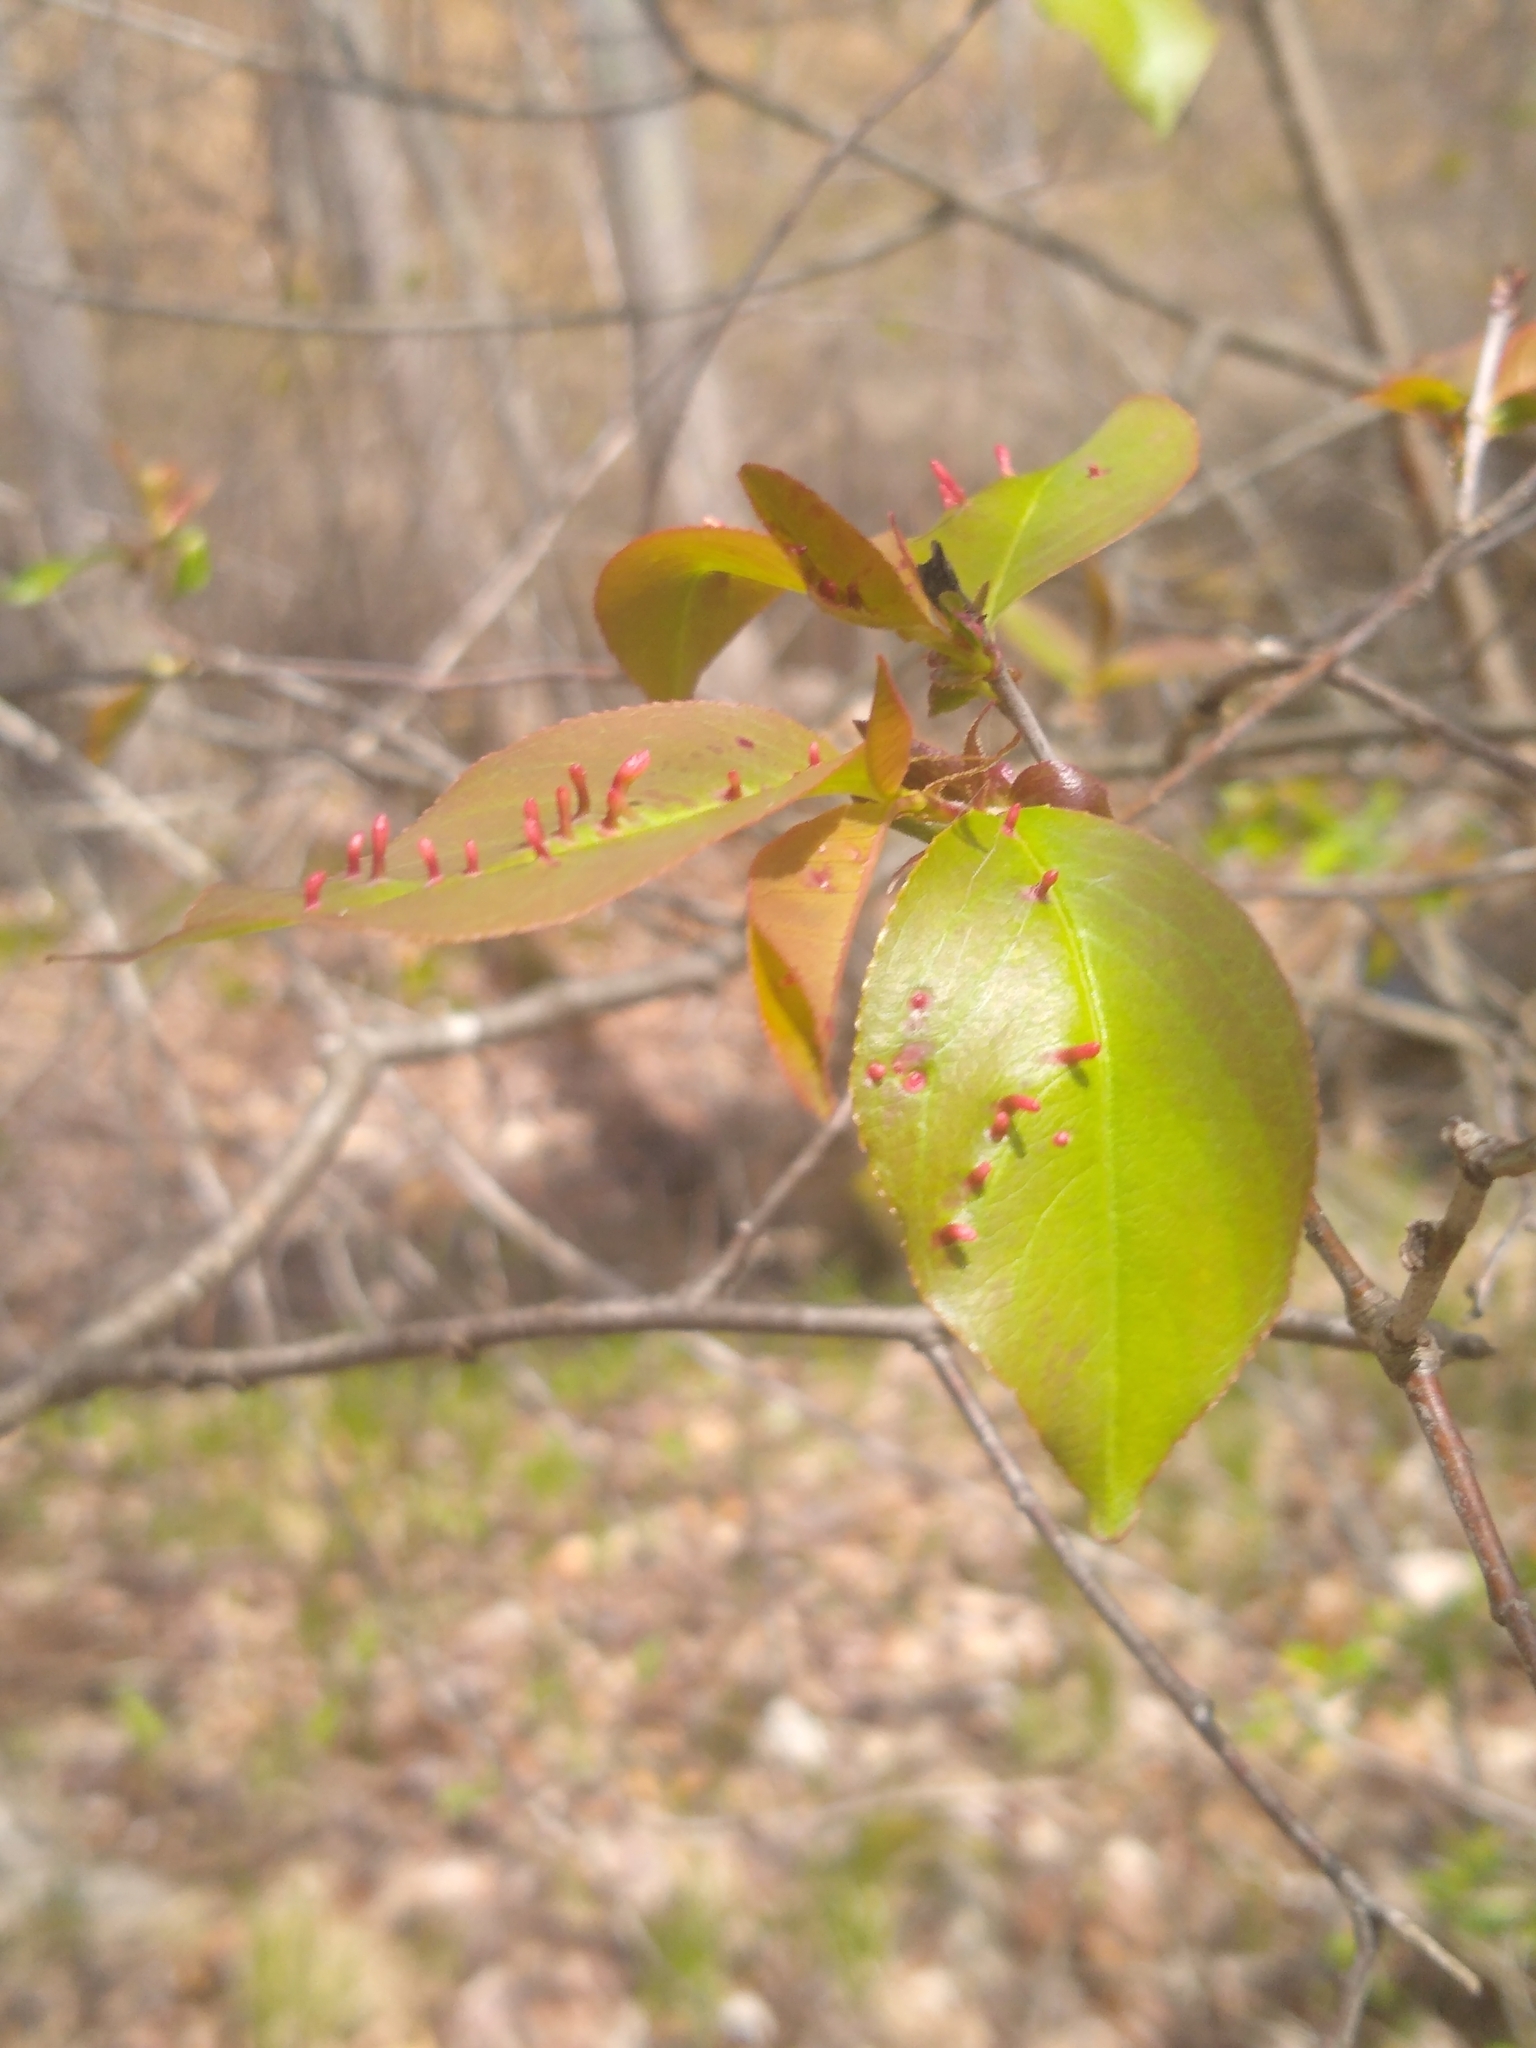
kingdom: Animalia
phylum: Arthropoda
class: Arachnida
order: Trombidiformes
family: Eriophyidae
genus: Eriophyes
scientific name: Eriophyes
